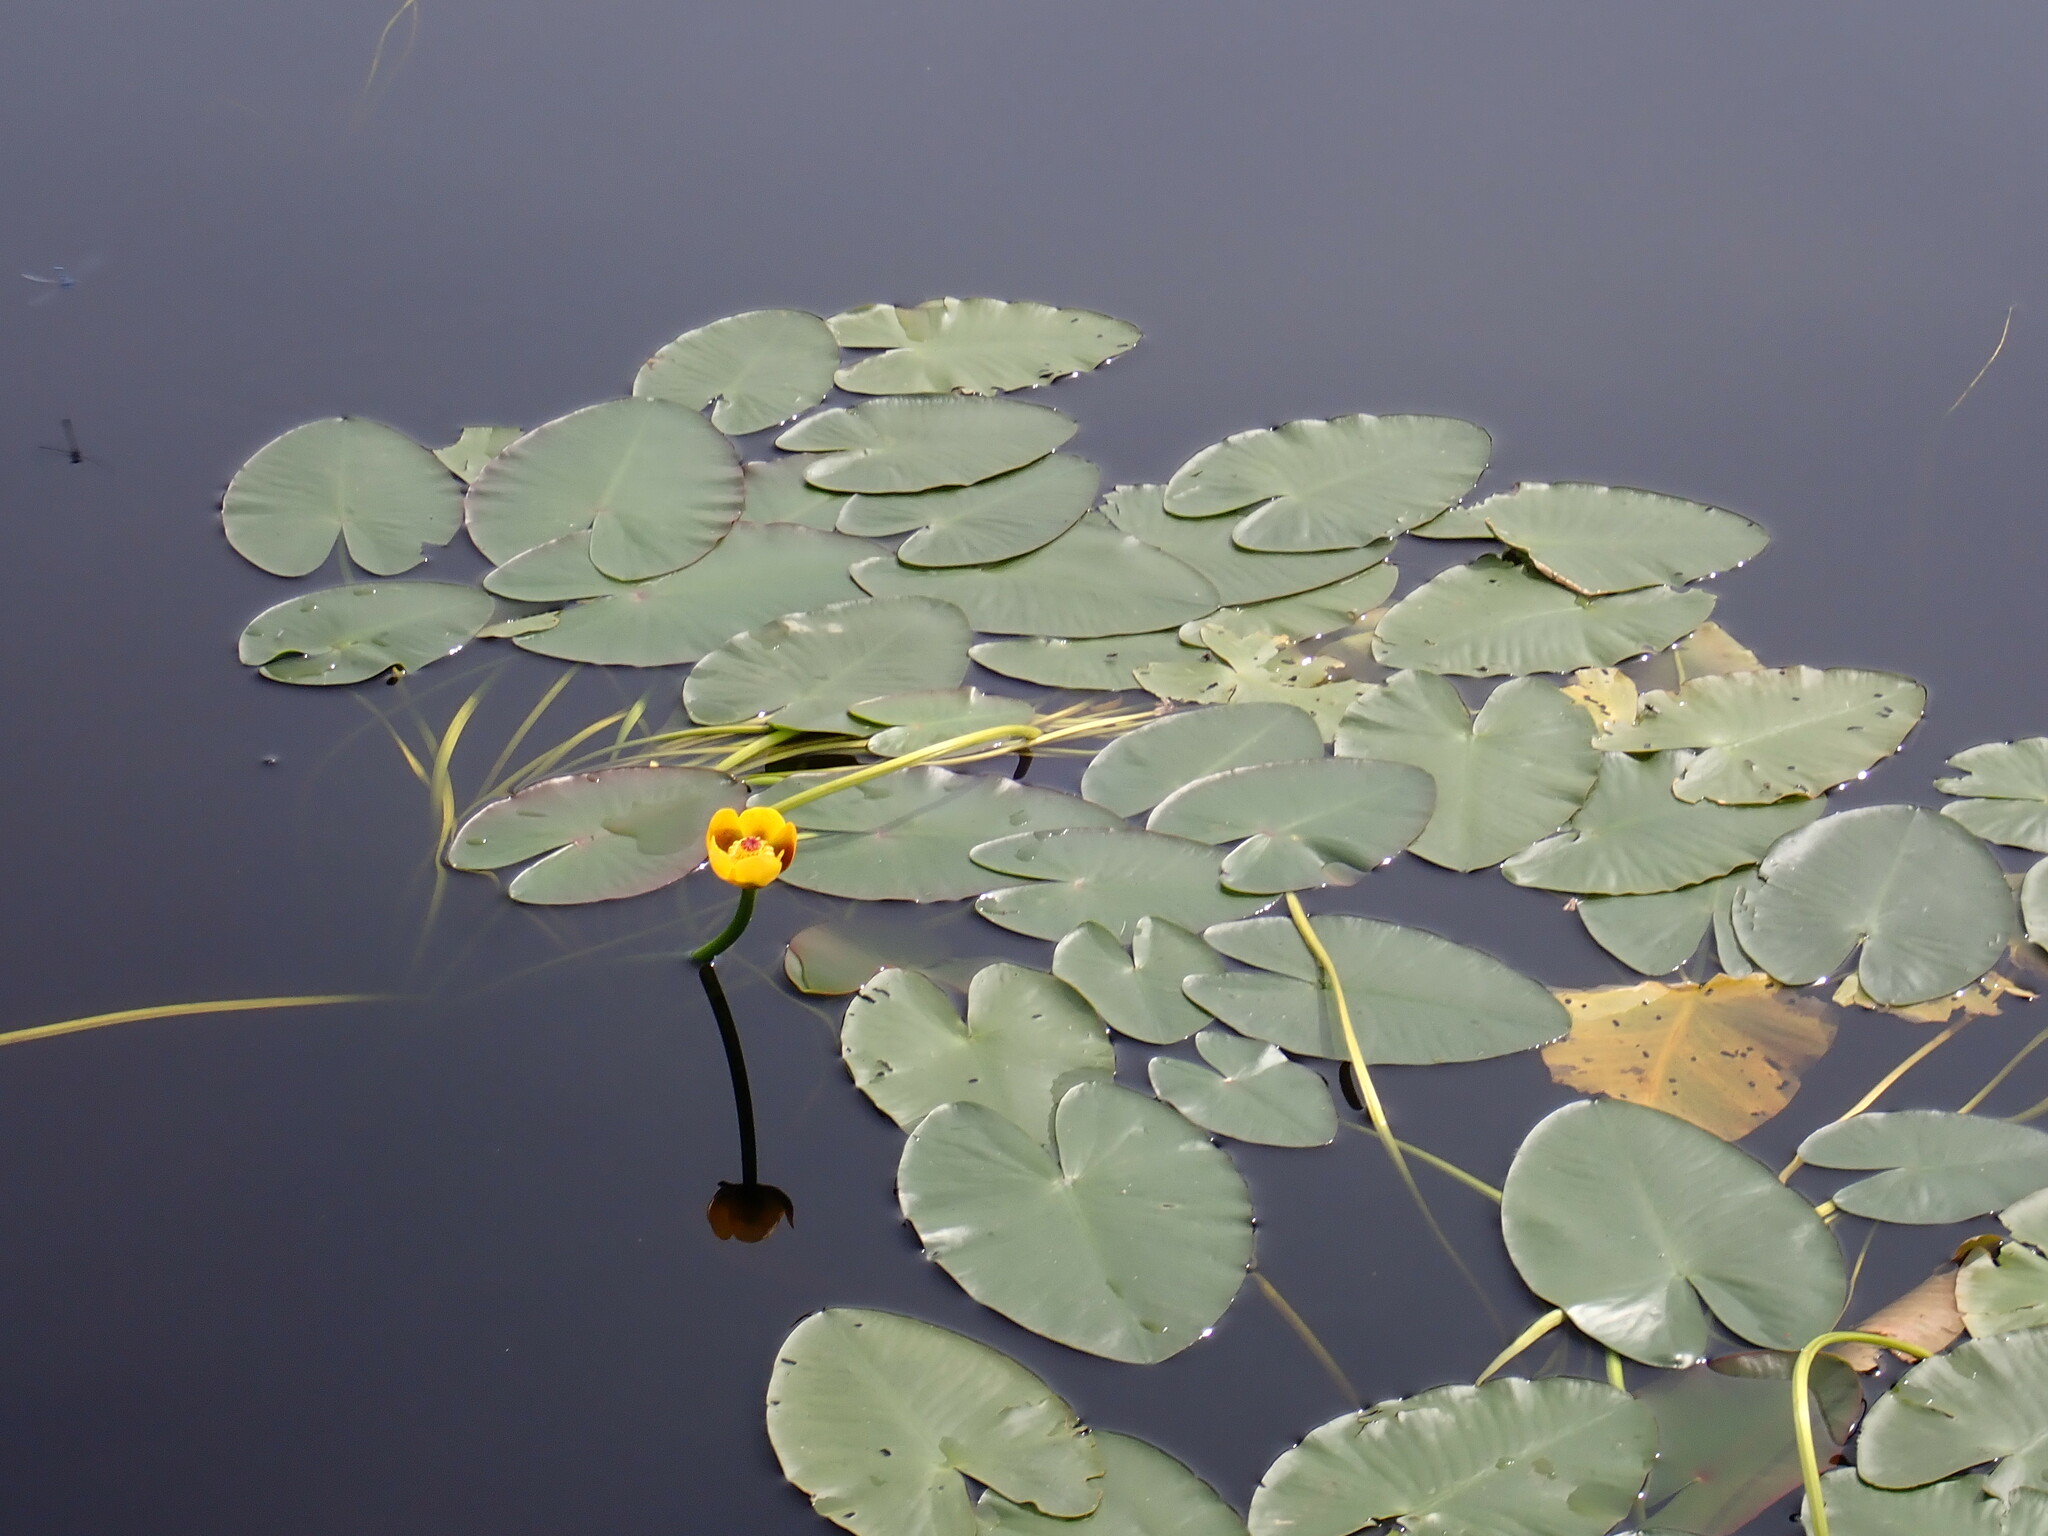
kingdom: Plantae
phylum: Tracheophyta
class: Magnoliopsida
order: Nymphaeales
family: Nymphaeaceae
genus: Nuphar
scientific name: Nuphar variegata
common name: Beaver-root
